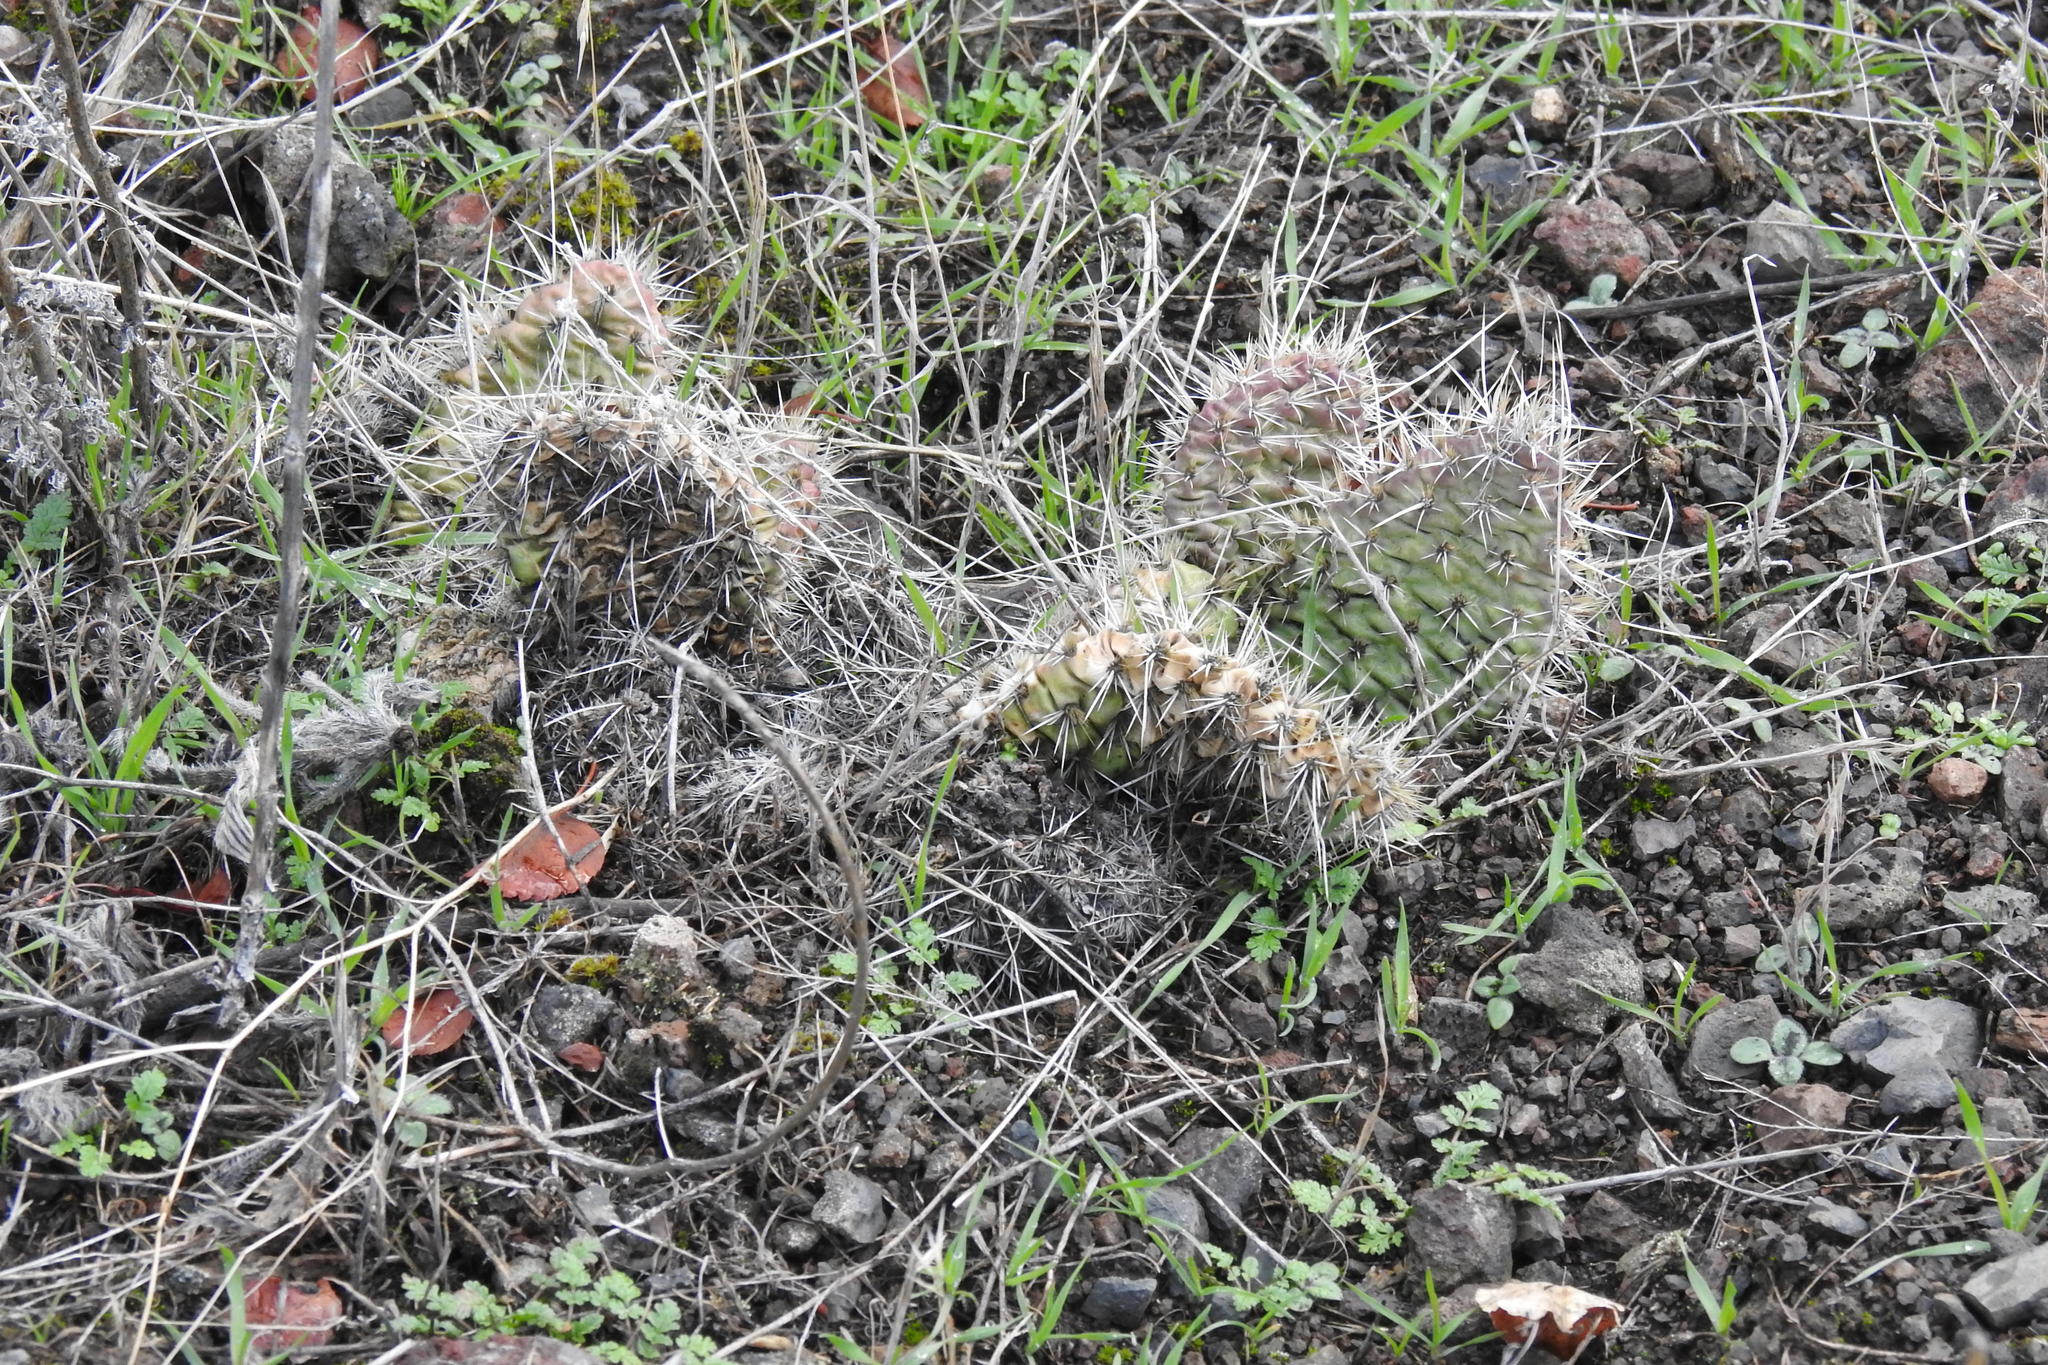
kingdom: Plantae
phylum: Tracheophyta
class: Magnoliopsida
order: Caryophyllales
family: Cactaceae
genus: Opuntia
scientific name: Opuntia polyacantha
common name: Plains prickly-pear
